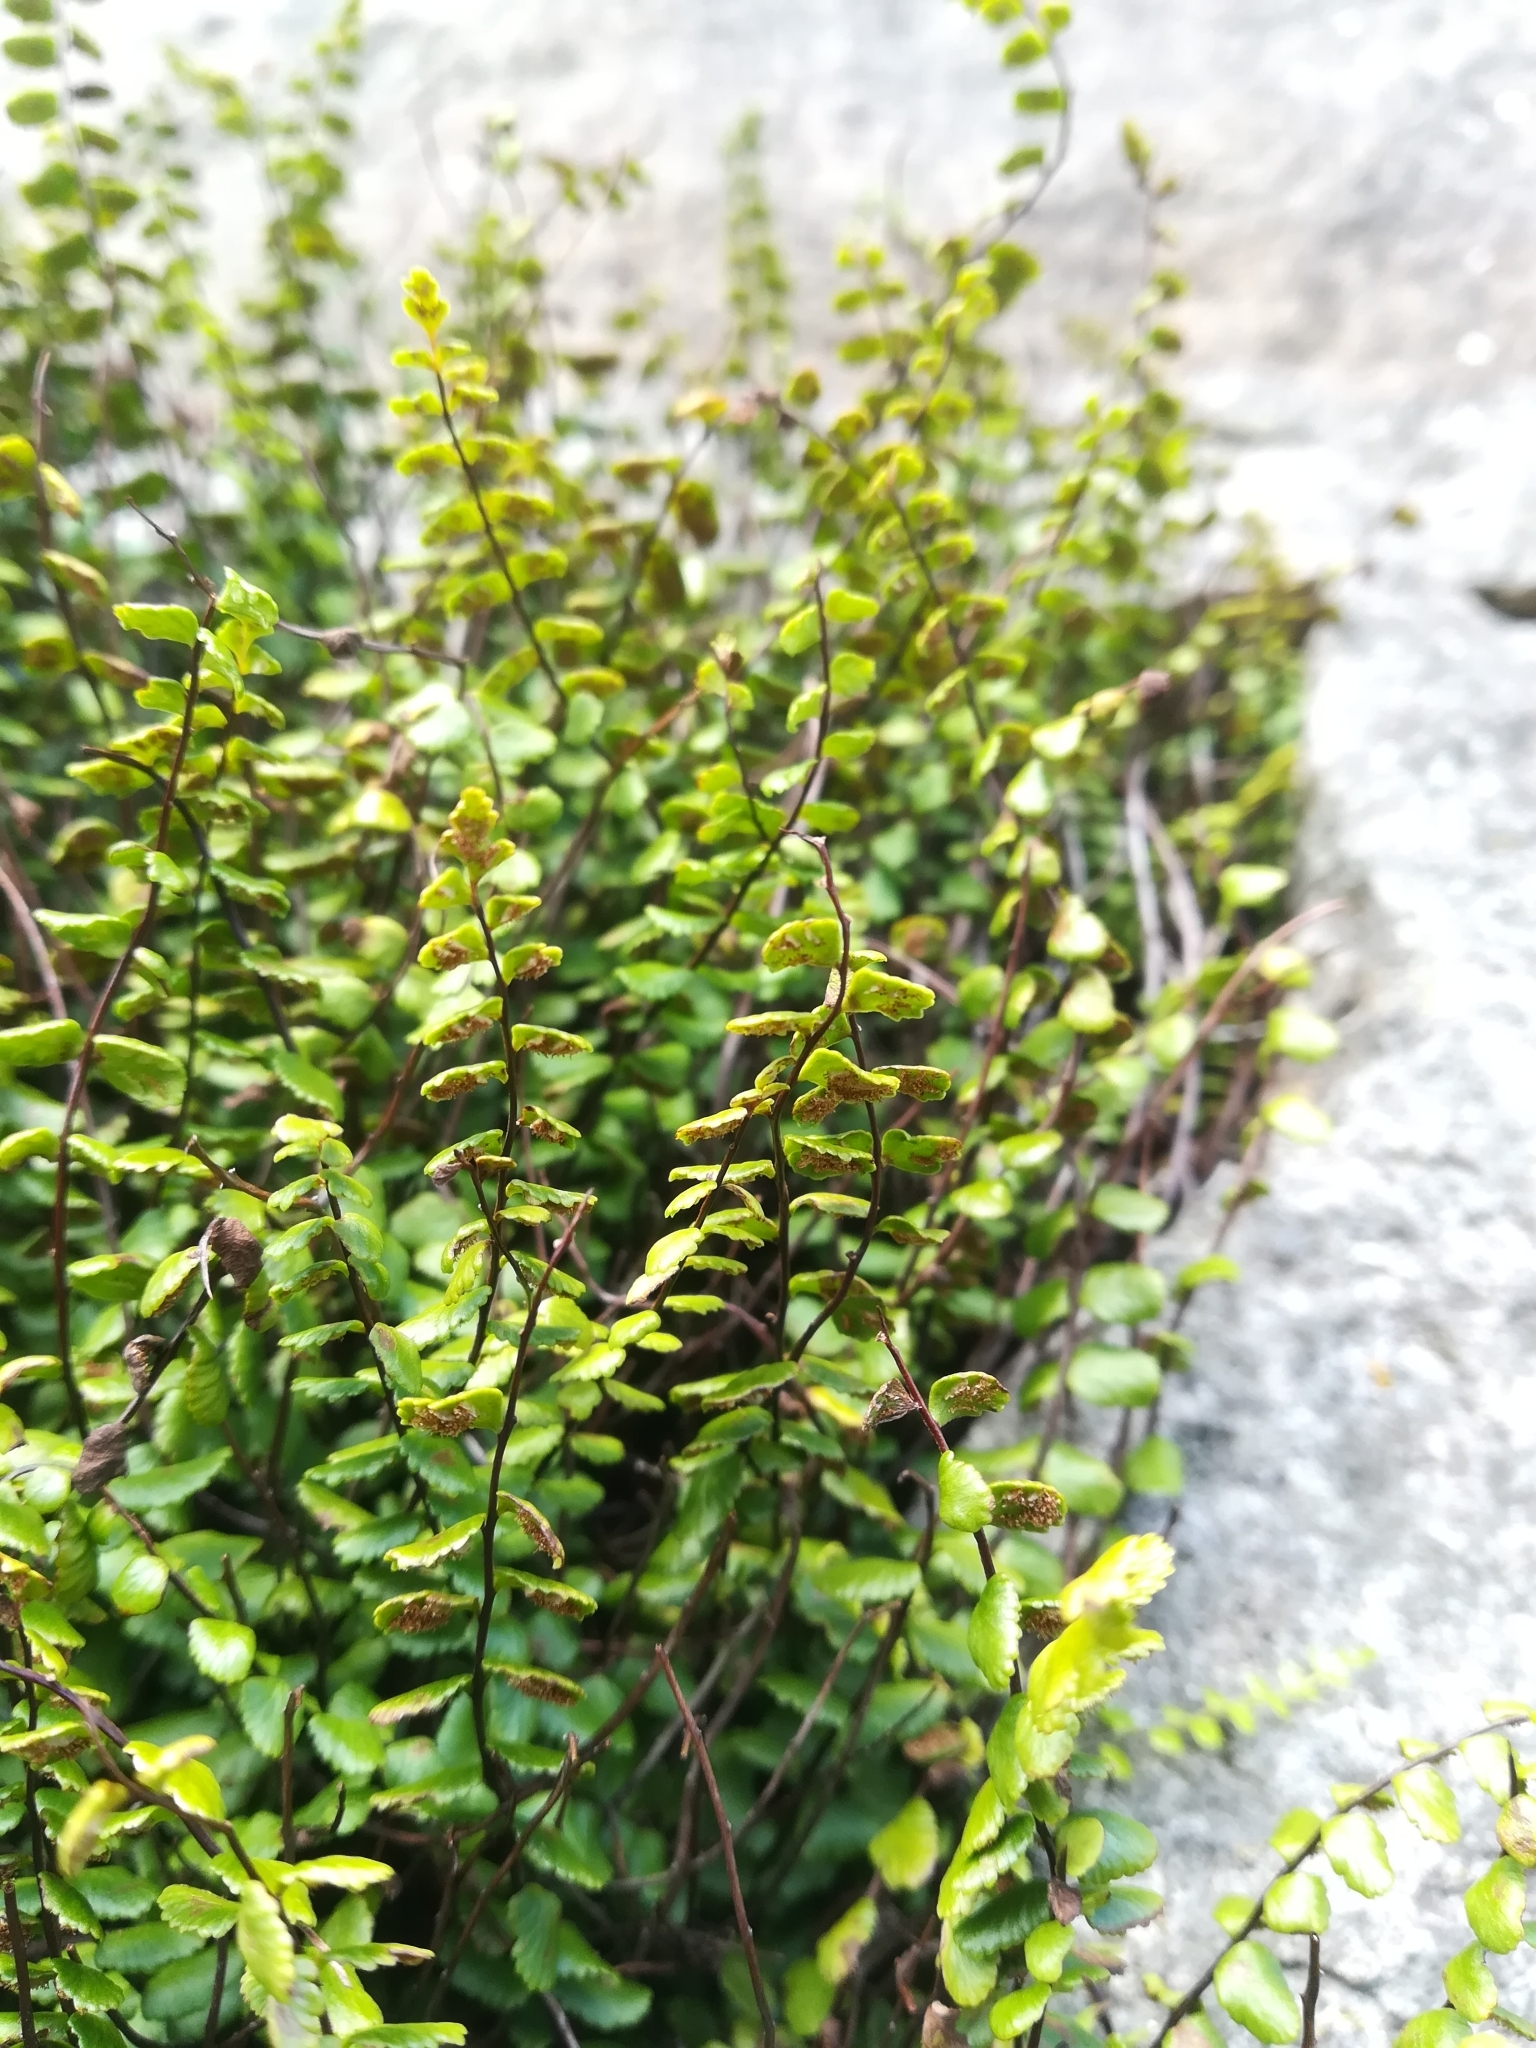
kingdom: Plantae
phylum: Tracheophyta
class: Polypodiopsida
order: Polypodiales
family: Aspleniaceae
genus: Asplenium
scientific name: Asplenium trichomanes
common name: Maidenhair spleenwort
